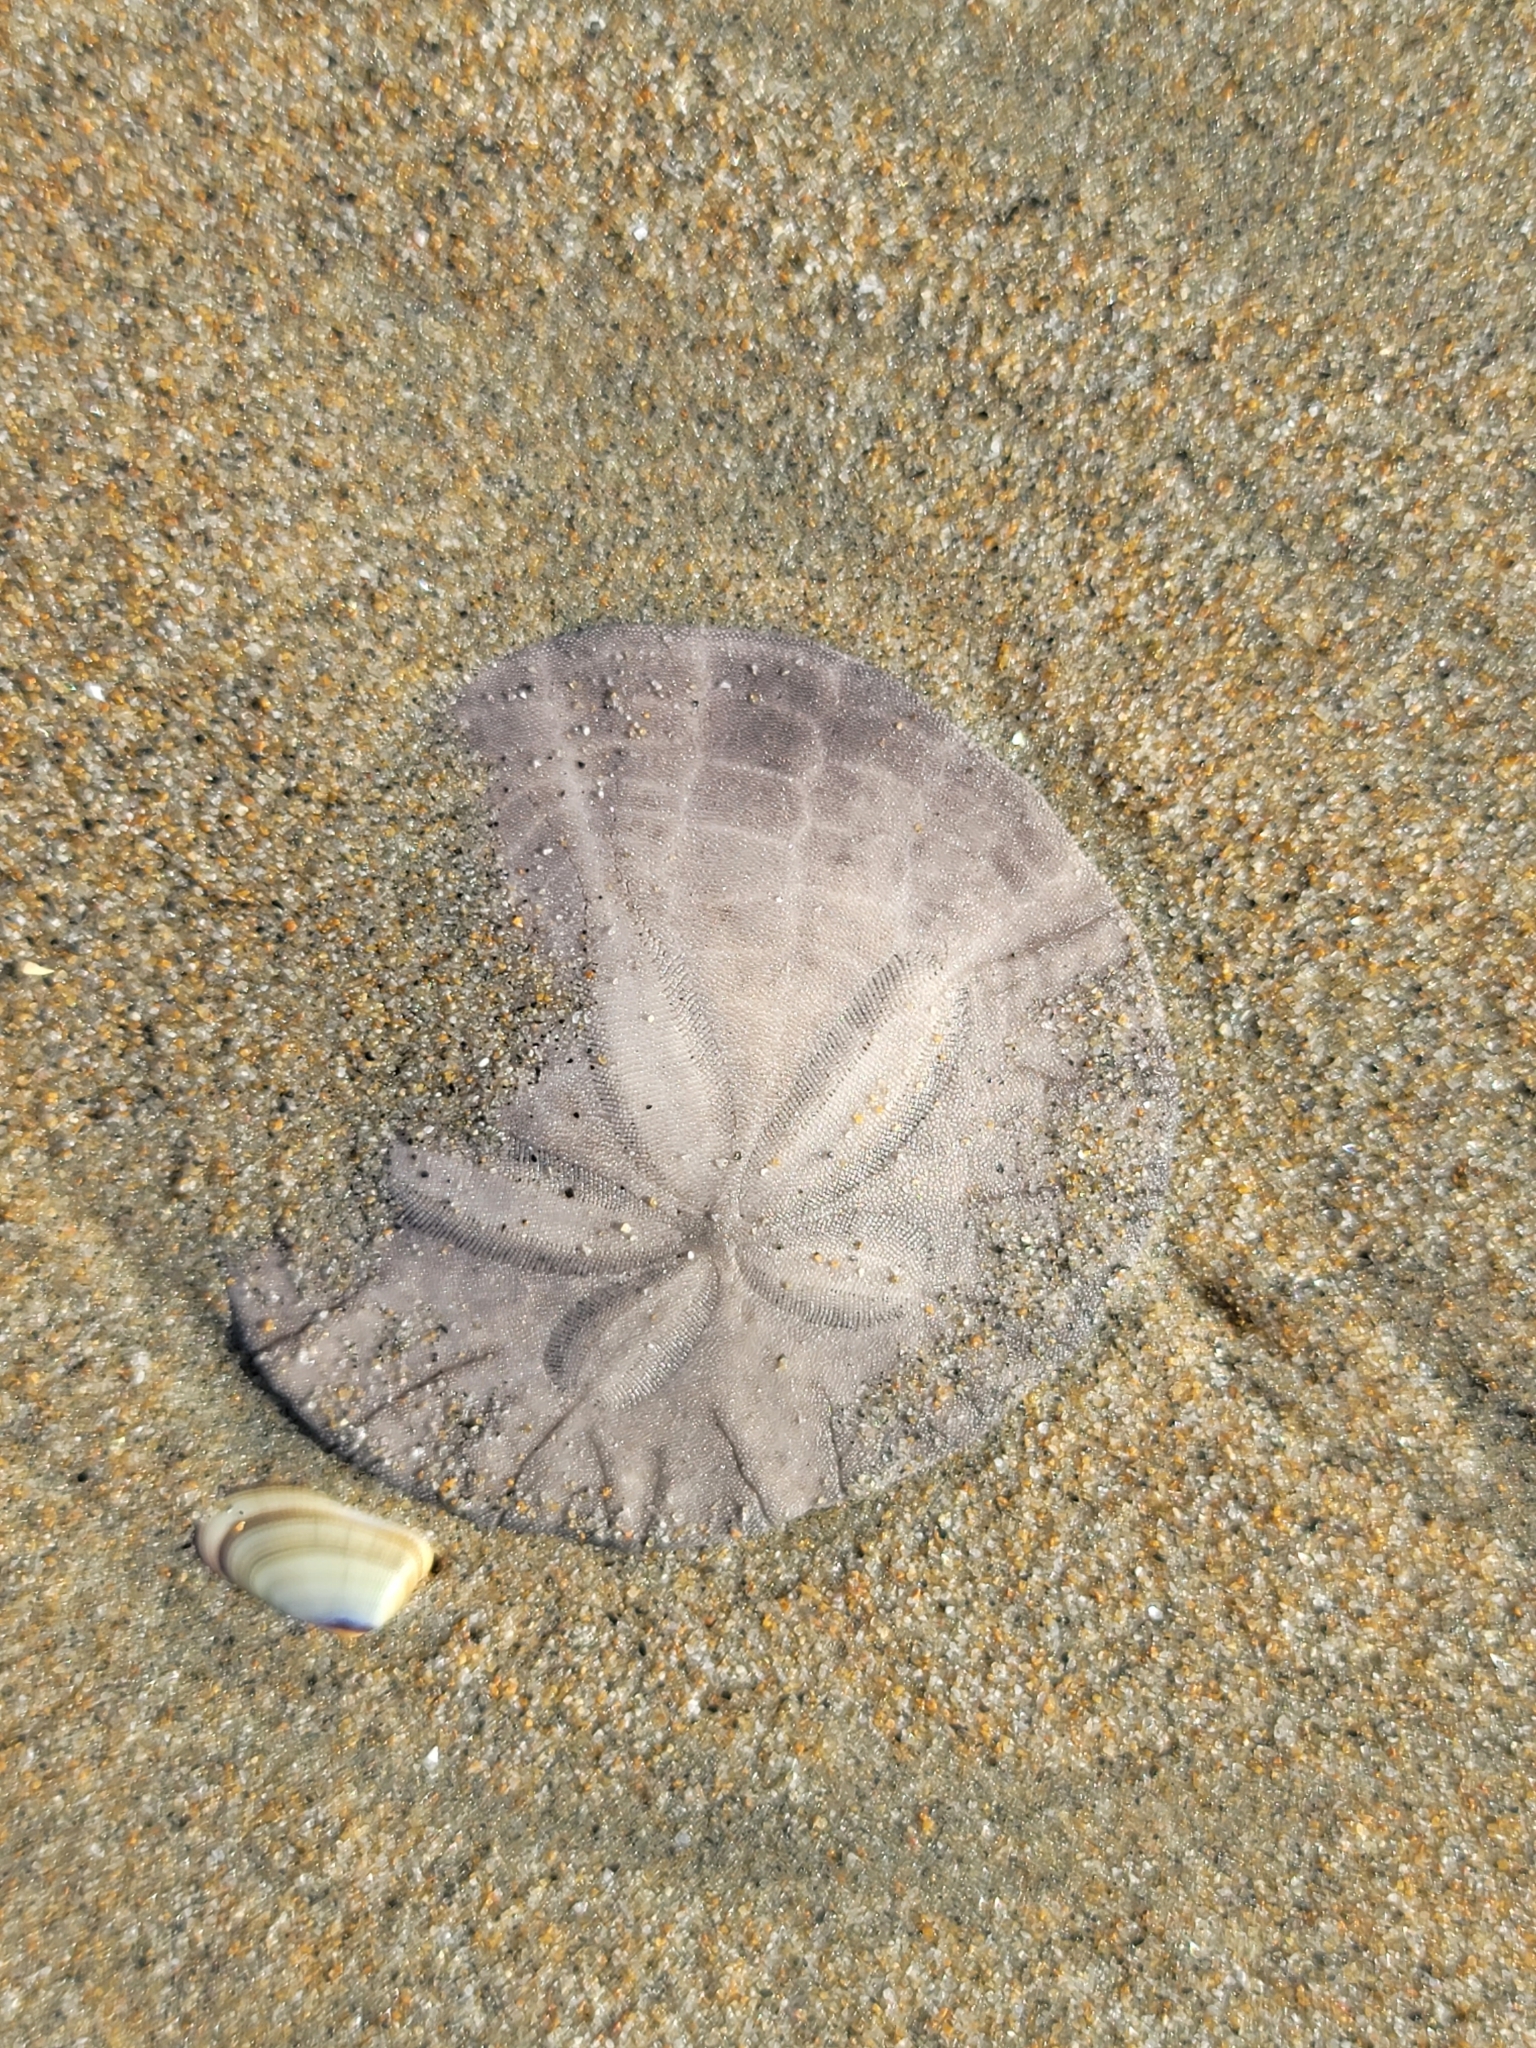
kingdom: Animalia
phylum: Echinodermata
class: Echinoidea
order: Echinolampadacea
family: Dendrasteridae
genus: Dendraster
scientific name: Dendraster excentricus
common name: Eccentric sand dollar sea urchin
